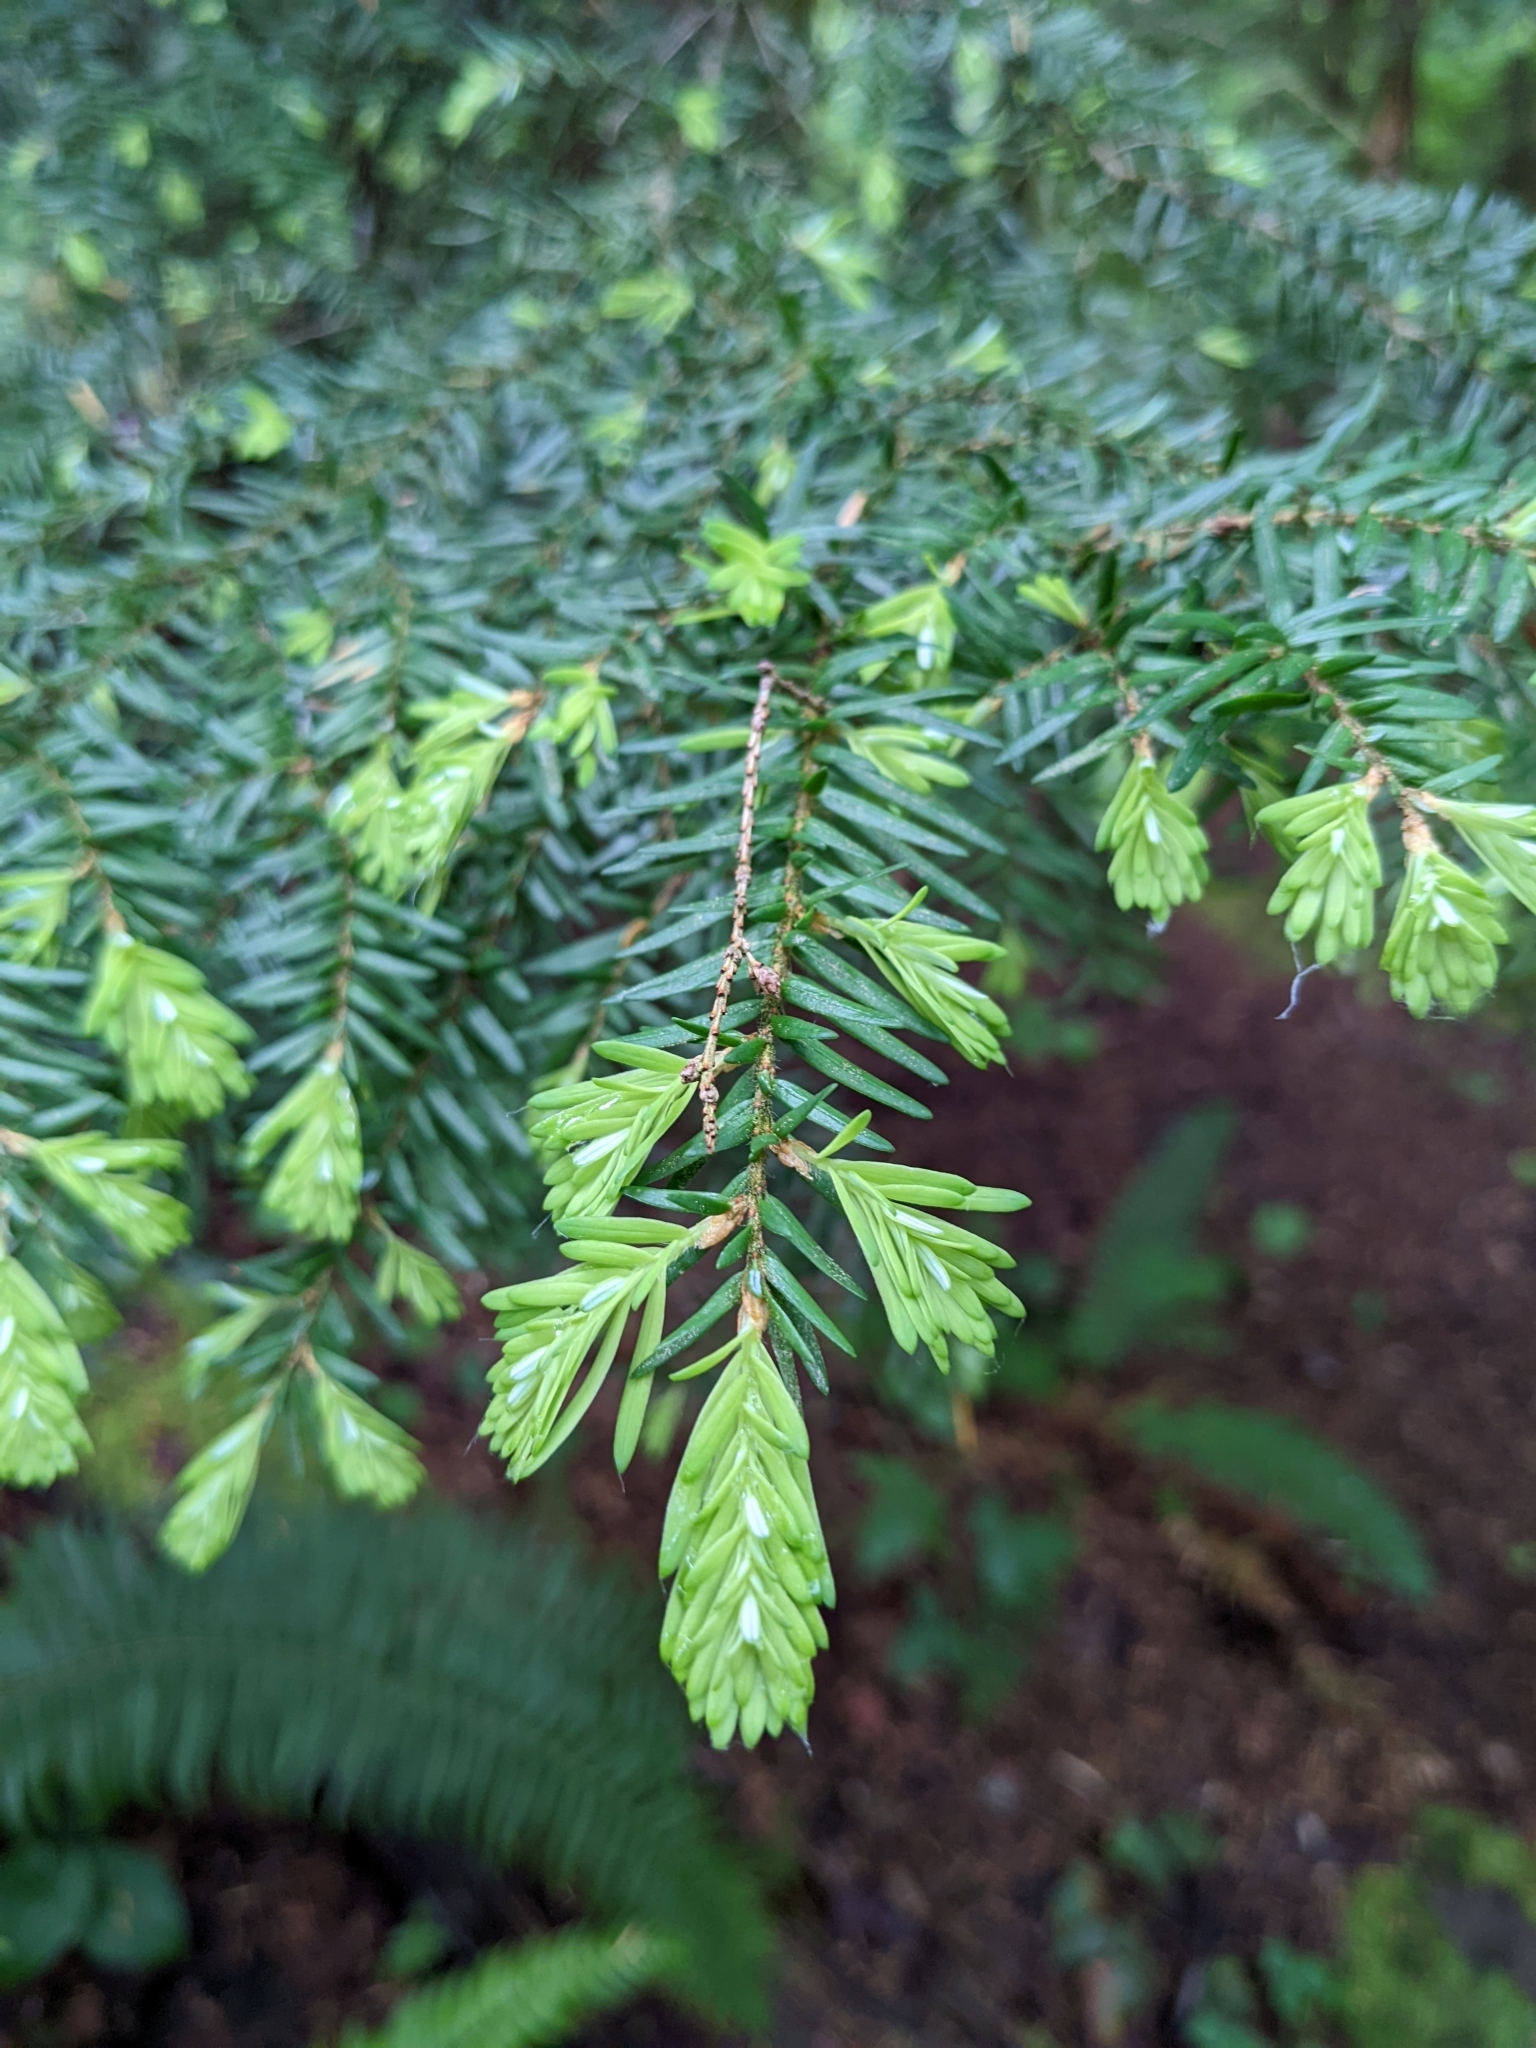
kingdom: Plantae
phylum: Tracheophyta
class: Pinopsida
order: Pinales
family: Pinaceae
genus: Tsuga
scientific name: Tsuga heterophylla
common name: Western hemlock
